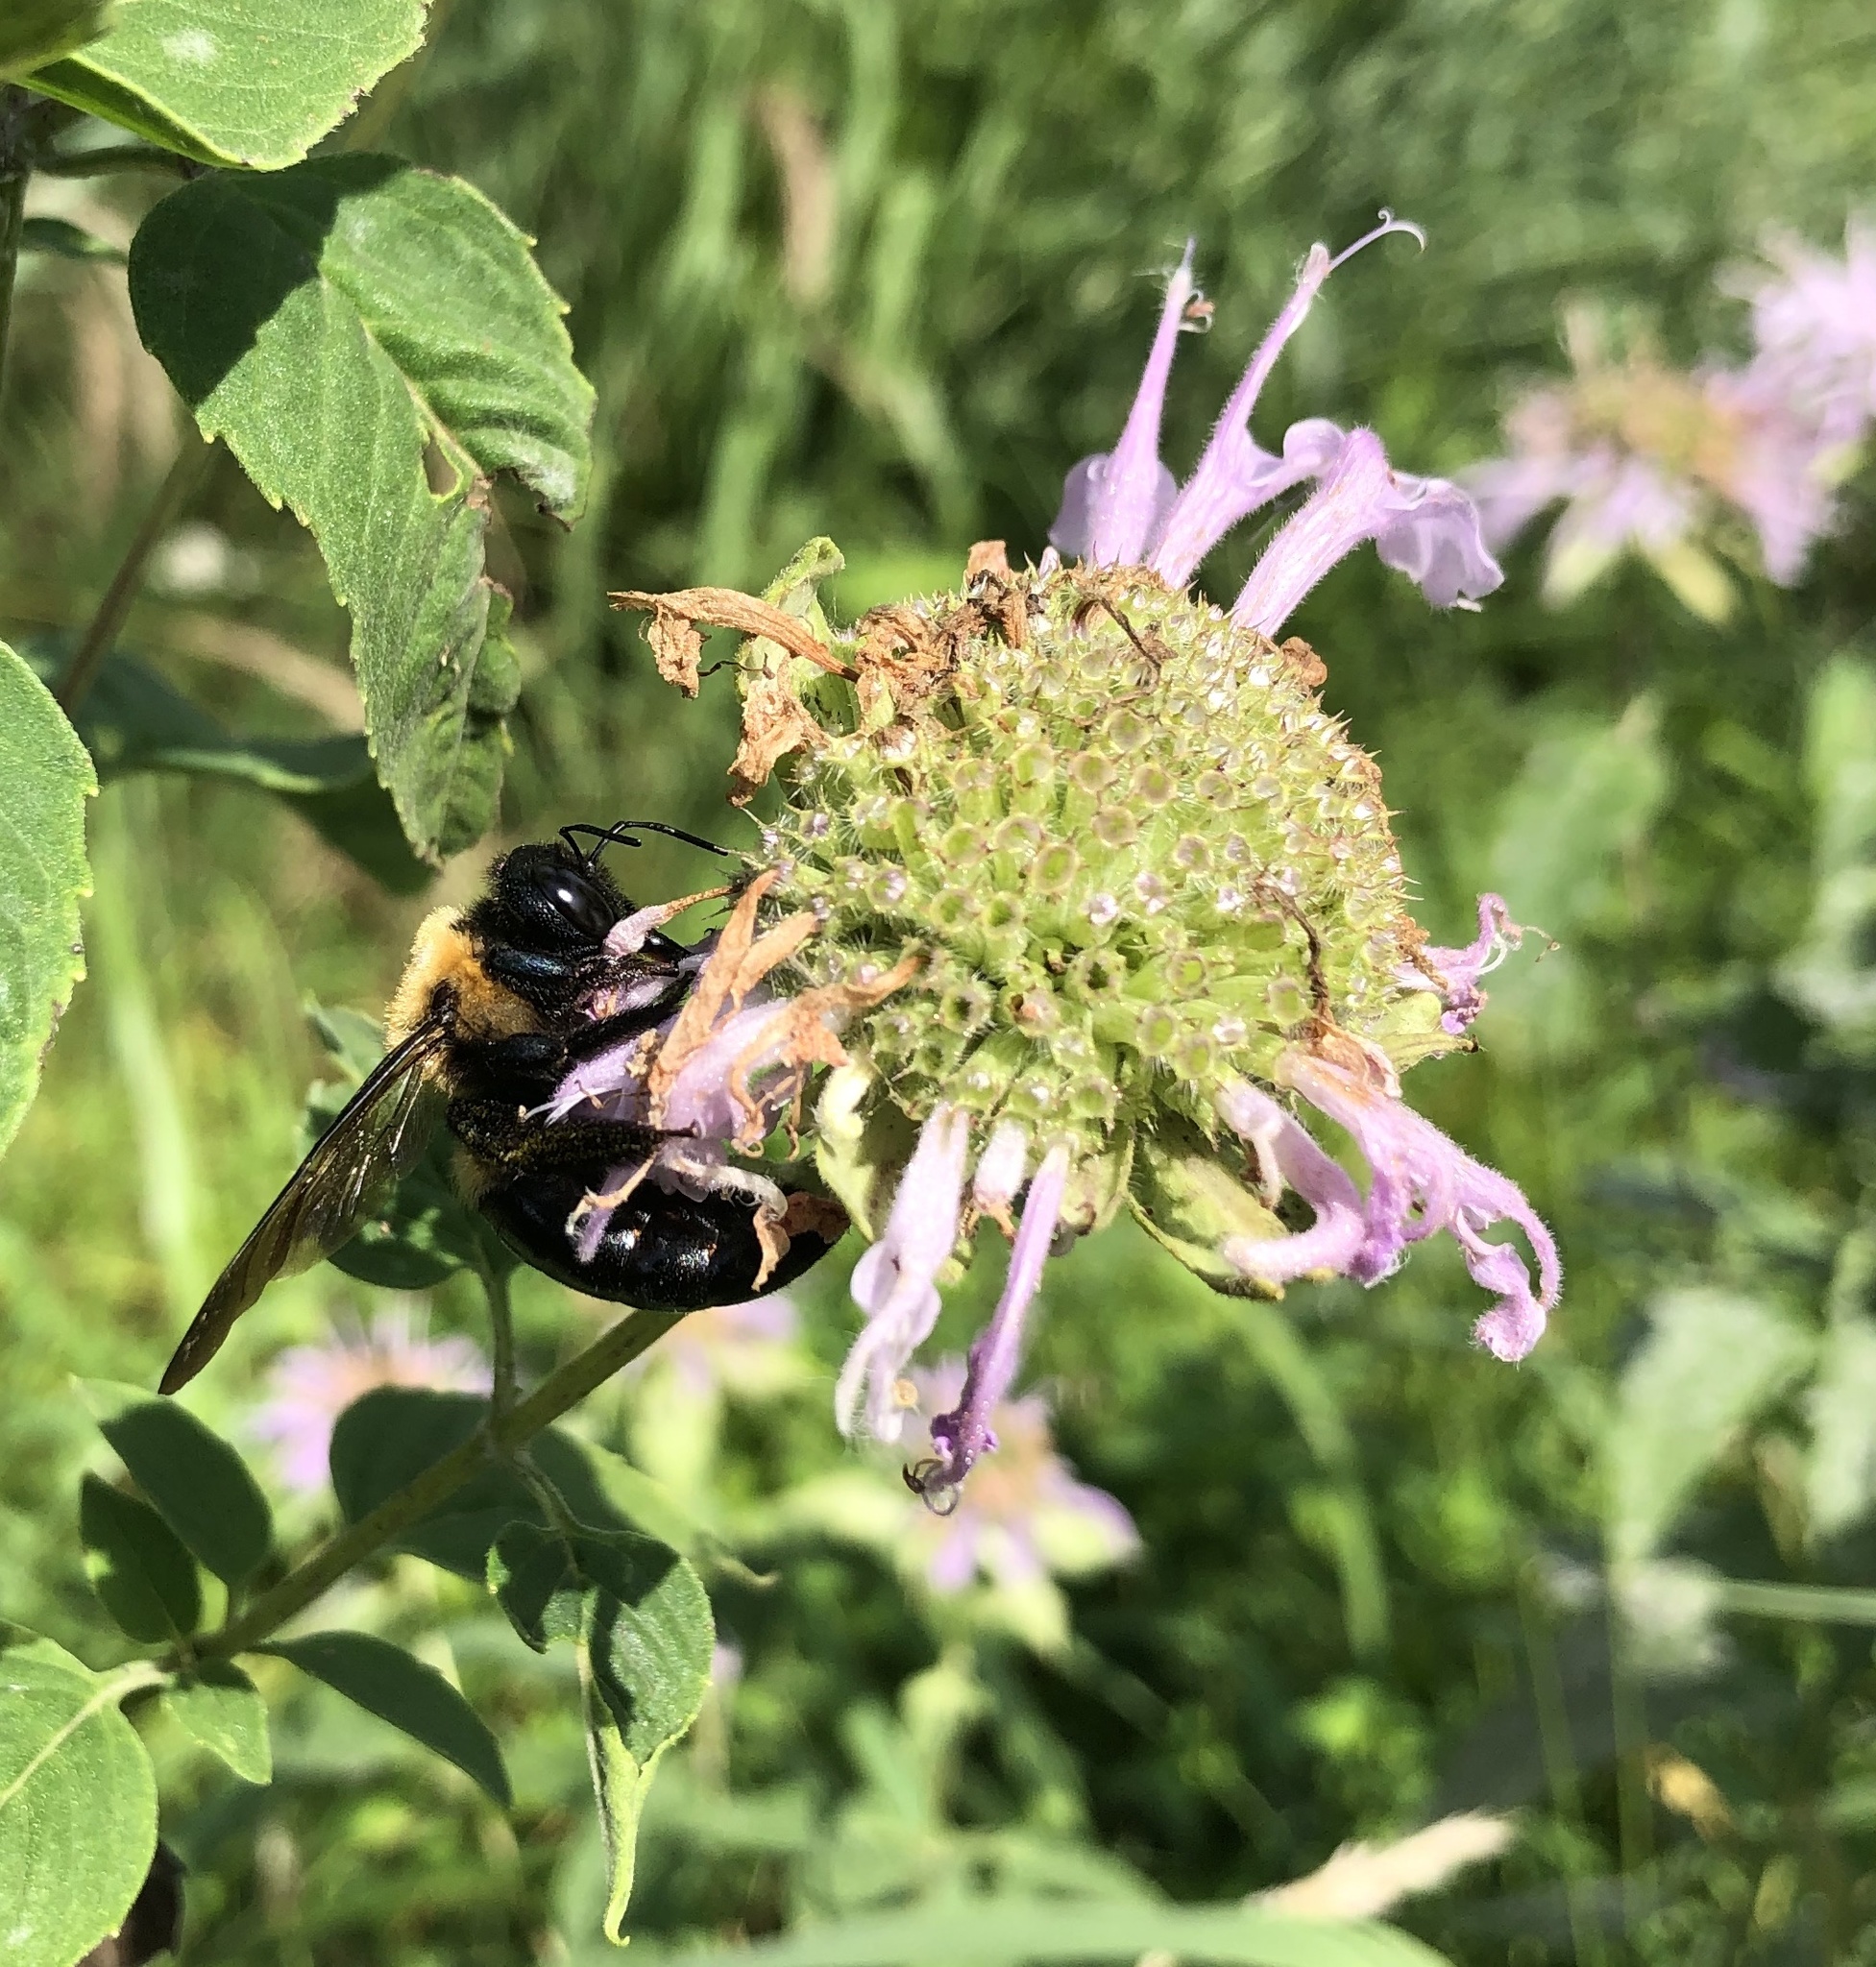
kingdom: Animalia
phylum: Arthropoda
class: Insecta
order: Hymenoptera
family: Apidae
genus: Xylocopa
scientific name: Xylocopa virginica
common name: Carpenter bee
